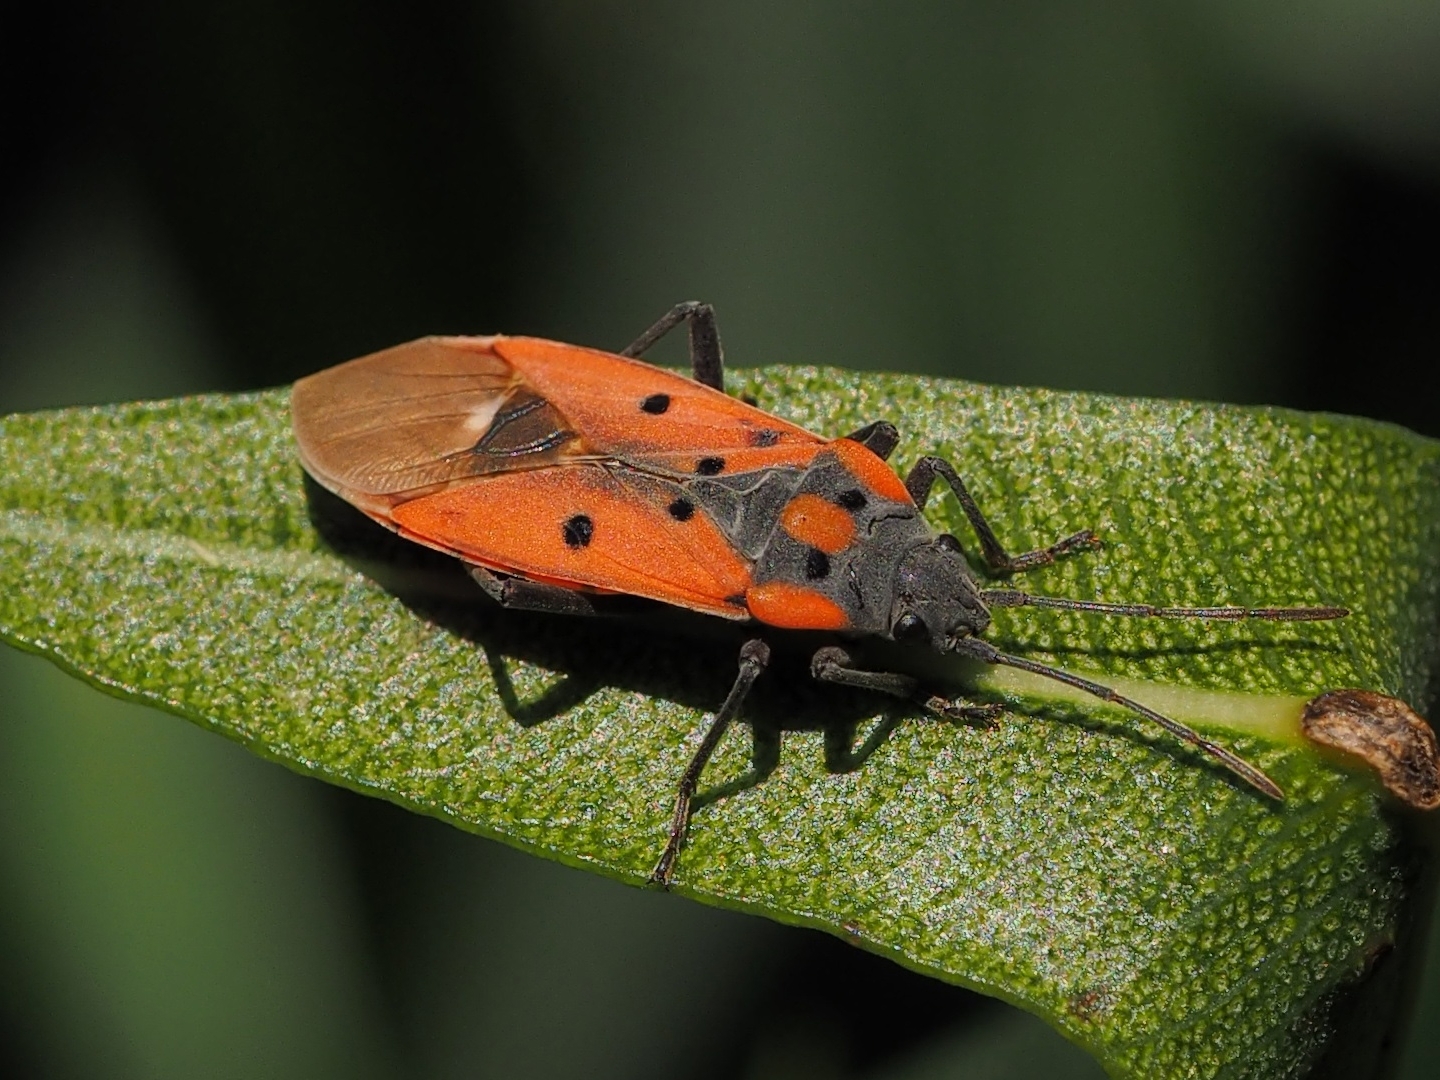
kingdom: Animalia
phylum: Arthropoda
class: Insecta
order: Hemiptera
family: Lygaeidae
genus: Lygaeus
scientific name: Lygaeus creticus
